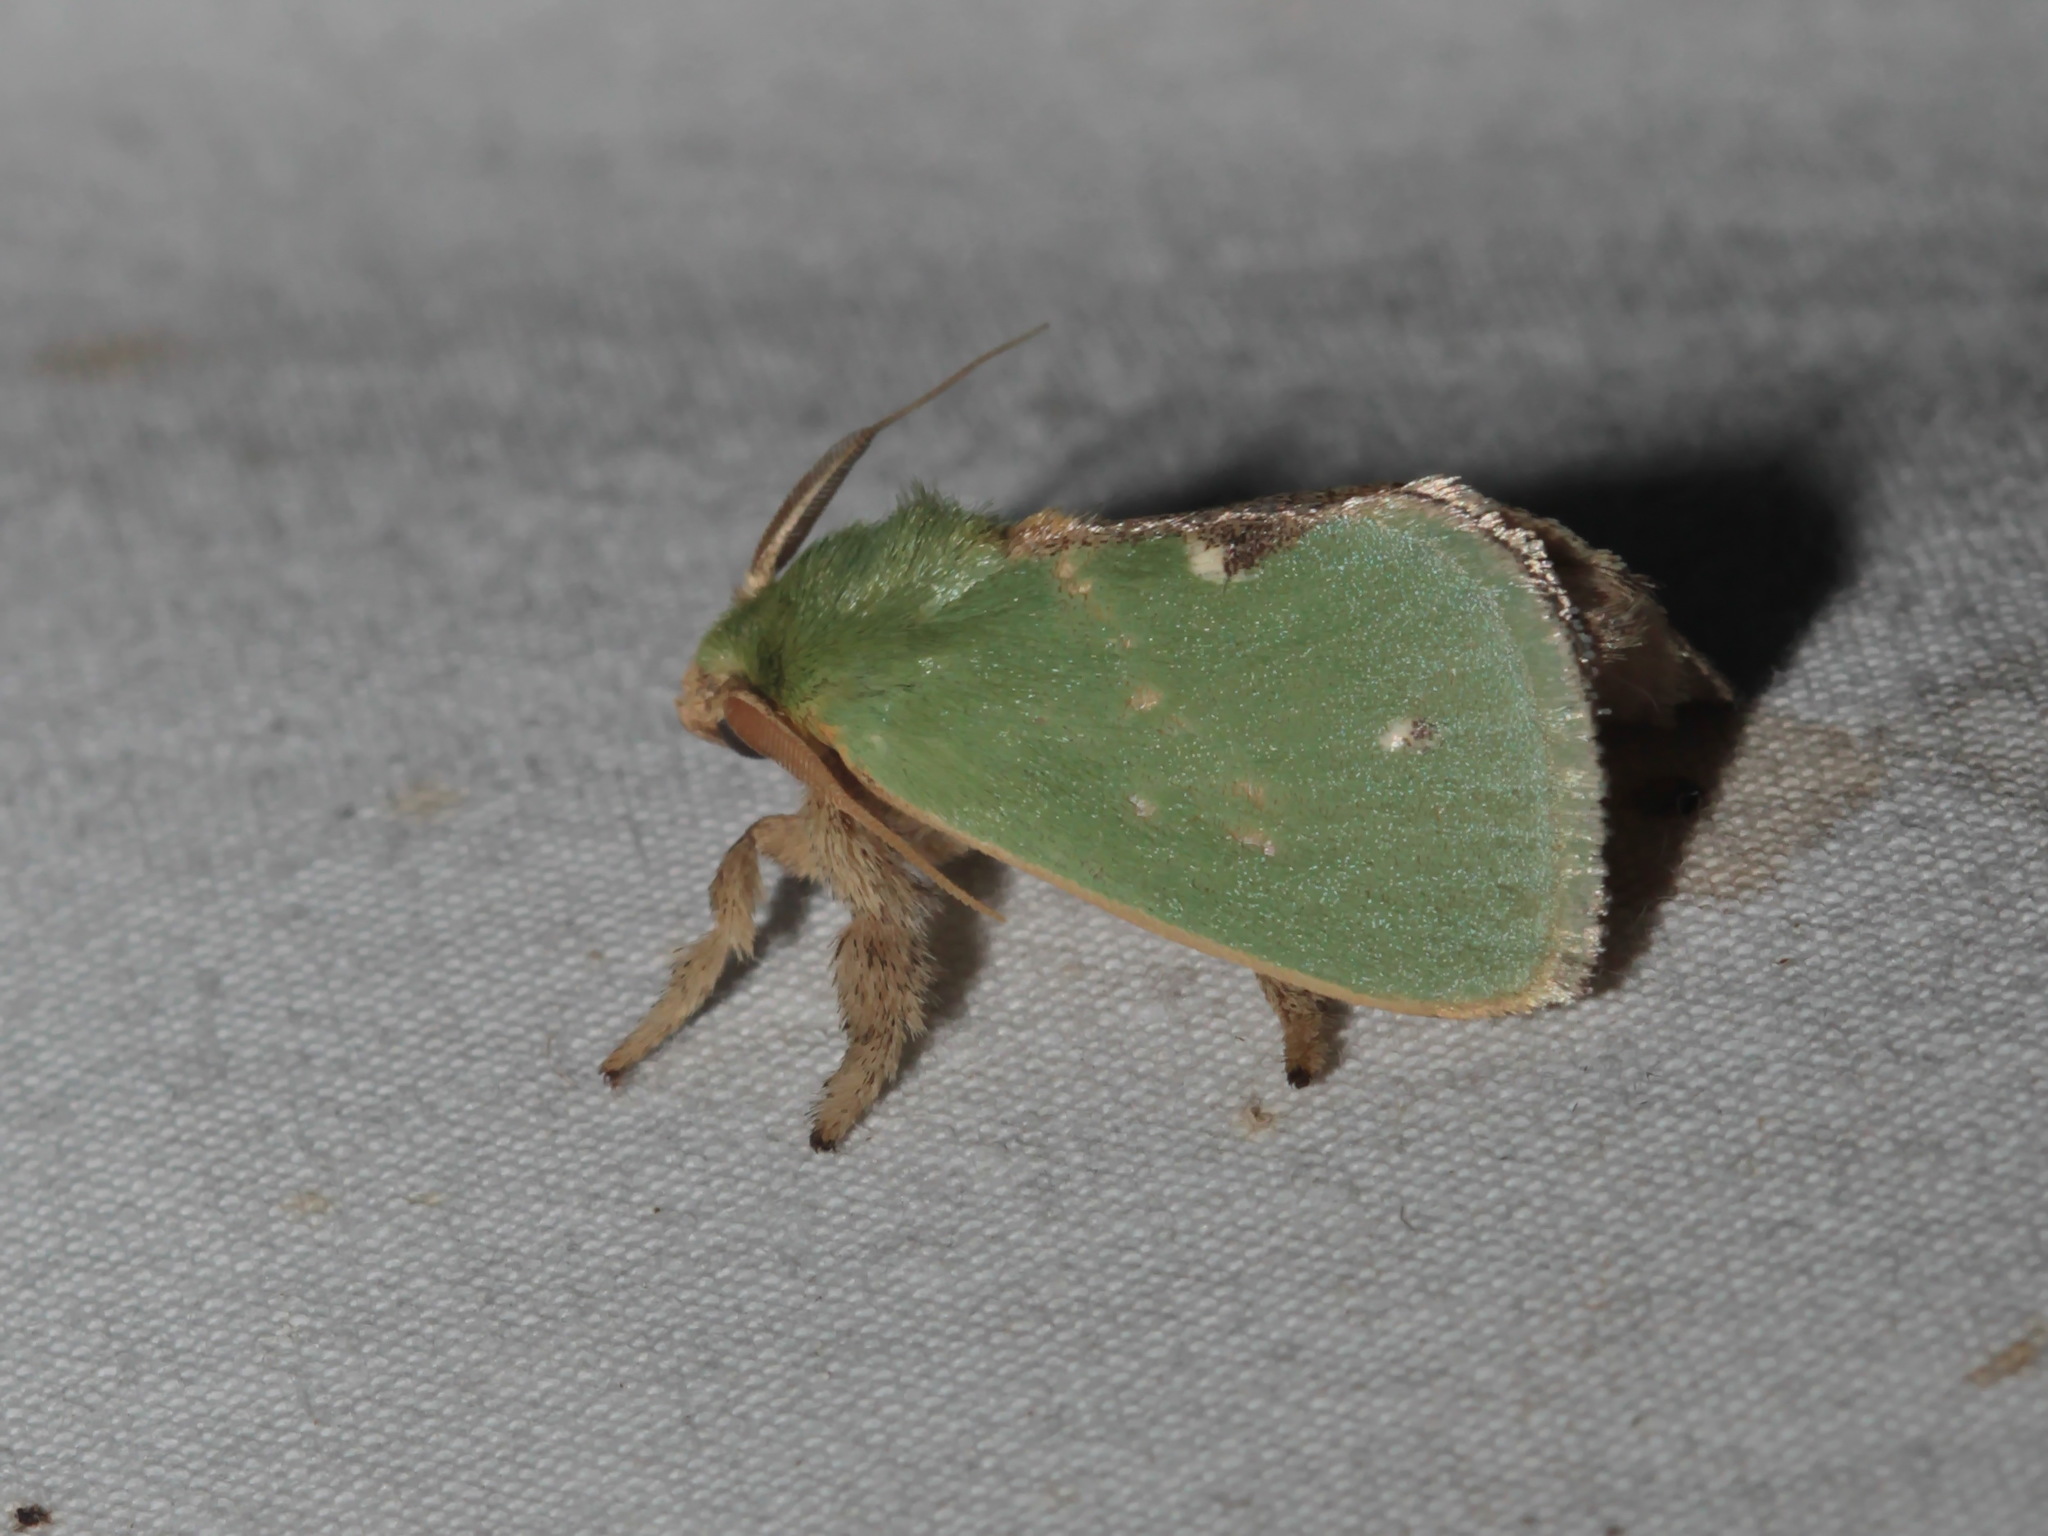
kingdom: Animalia
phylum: Arthropoda
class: Insecta
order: Lepidoptera
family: Limacodidae
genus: Thespea
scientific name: Thespea jade
